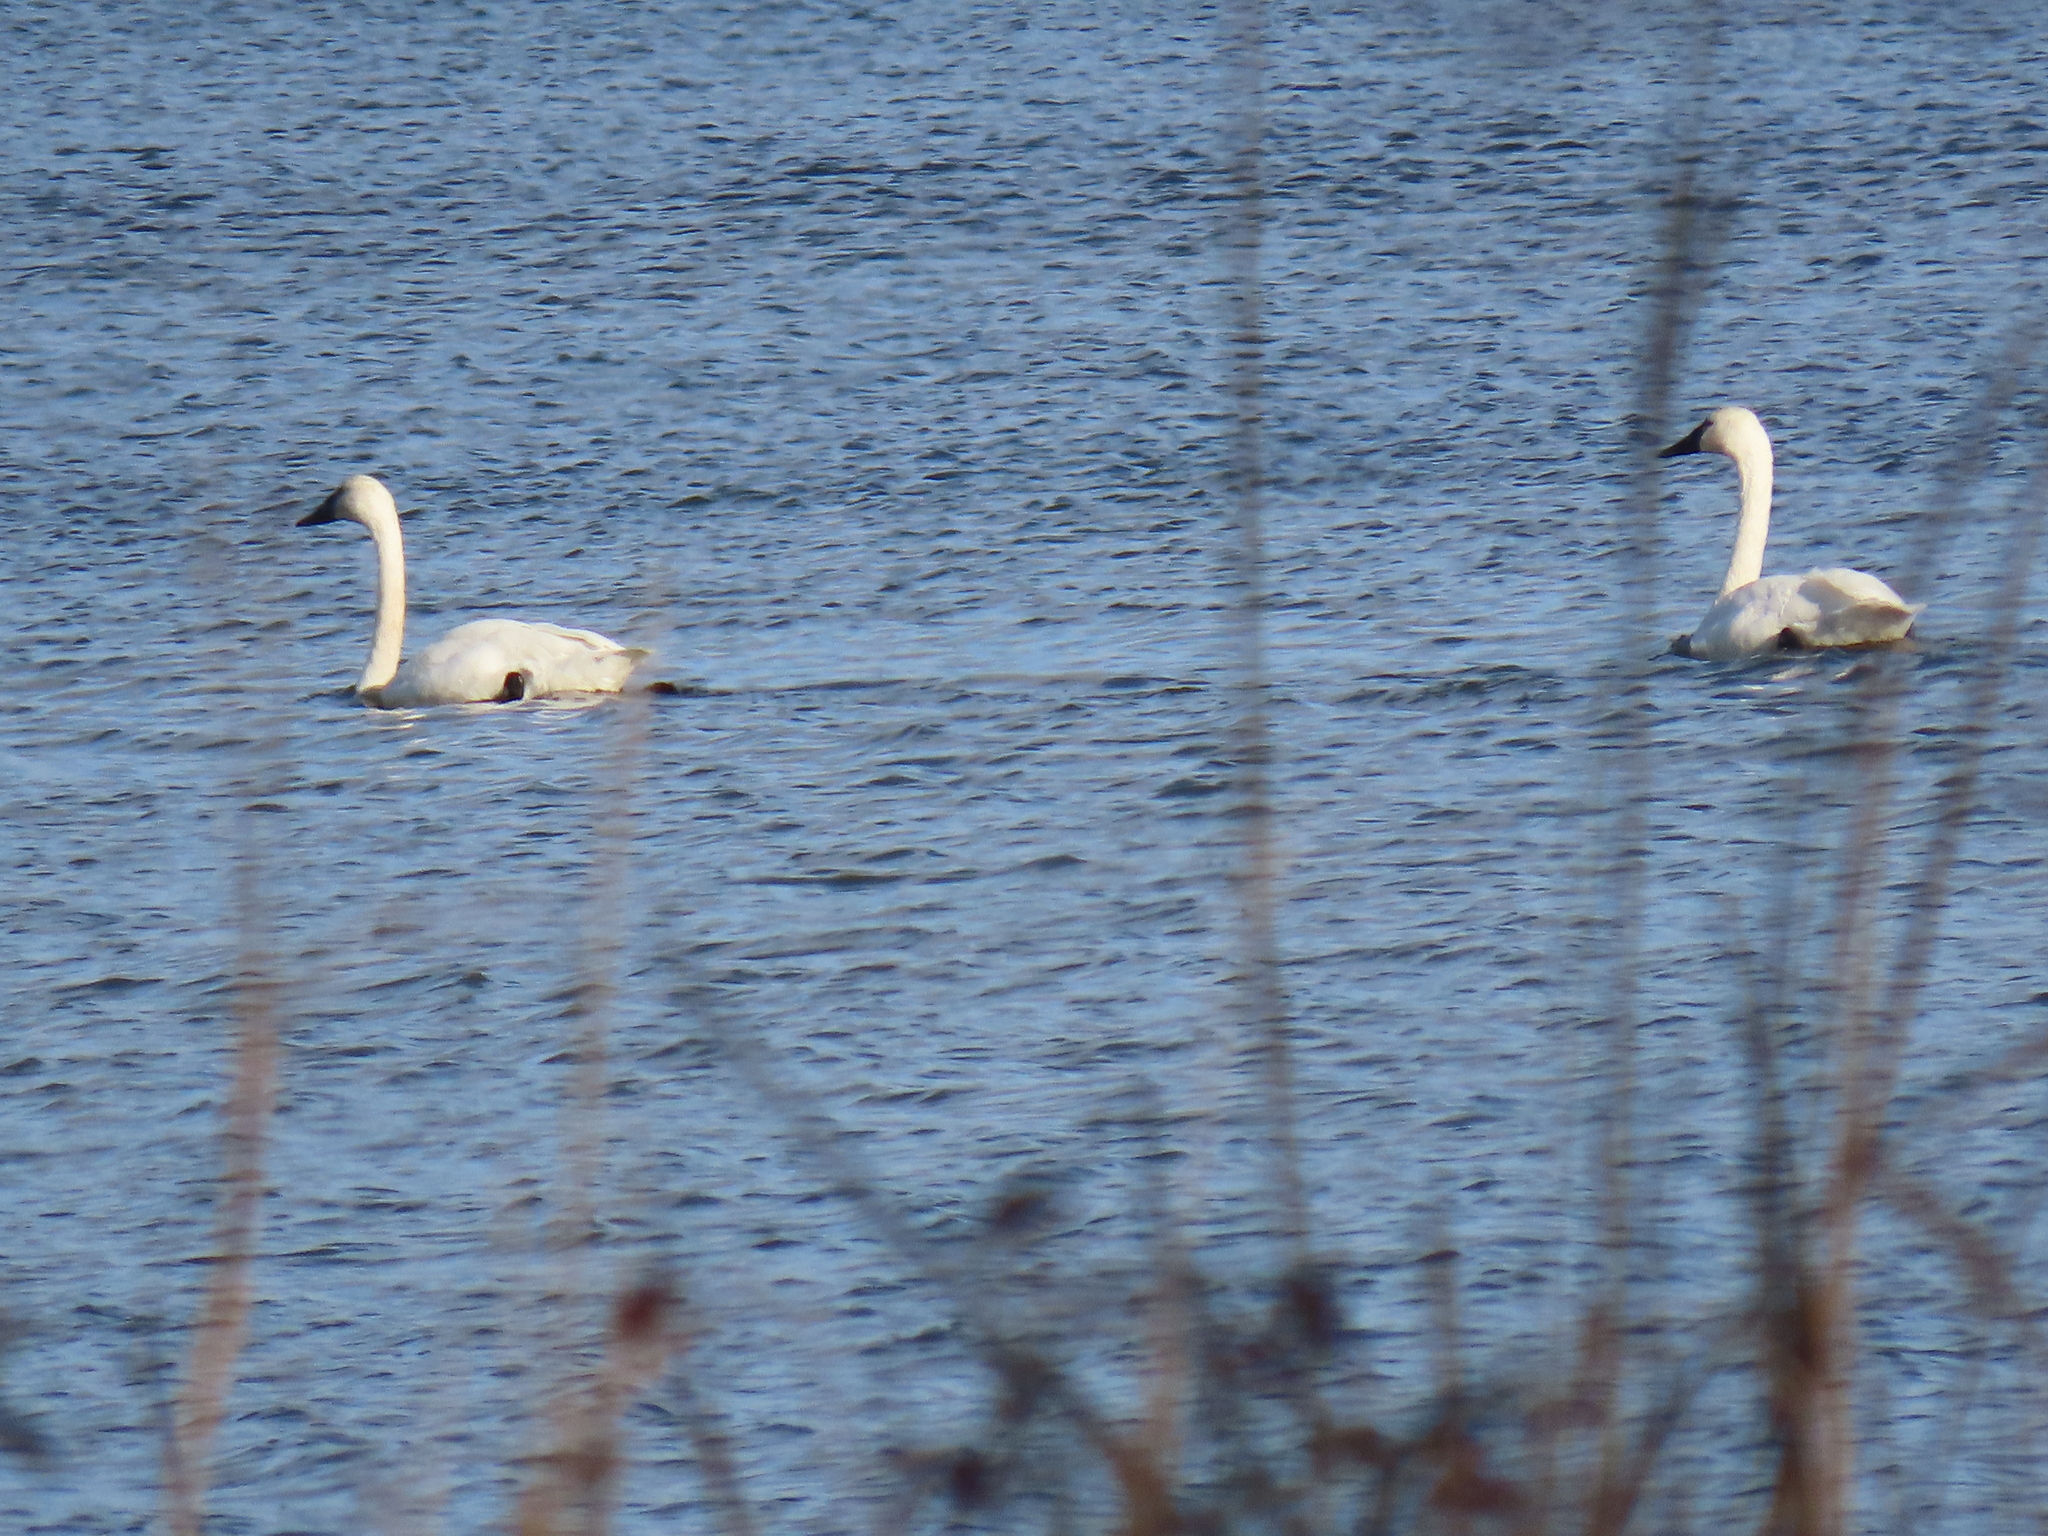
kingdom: Animalia
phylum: Chordata
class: Aves
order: Anseriformes
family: Anatidae
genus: Cygnus
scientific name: Cygnus columbianus
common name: Tundra swan
